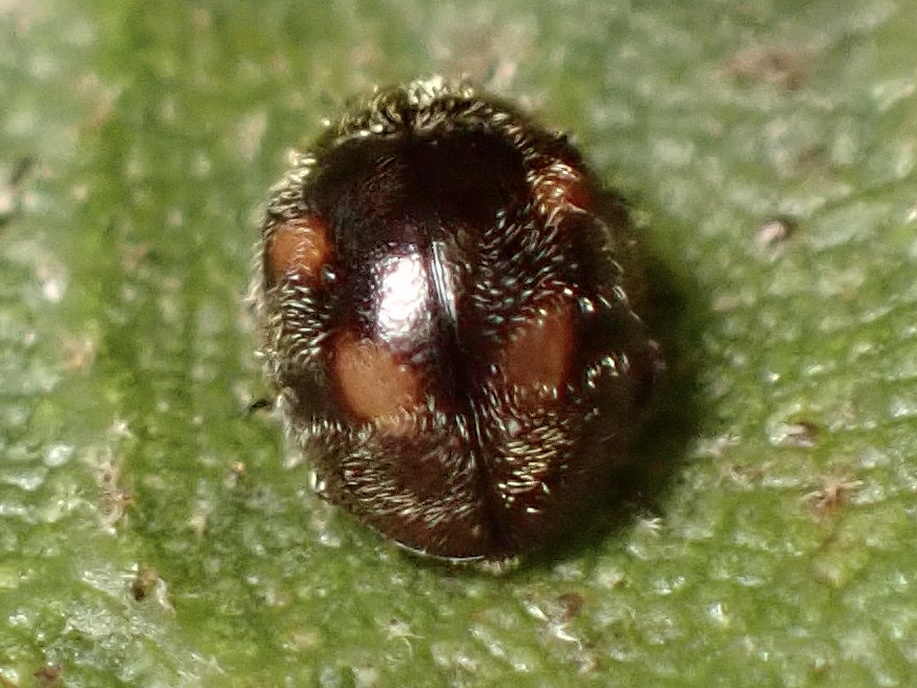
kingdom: Animalia
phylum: Arthropoda
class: Insecta
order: Coleoptera
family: Coccinellidae
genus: Zagloba
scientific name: Zagloba ornata
